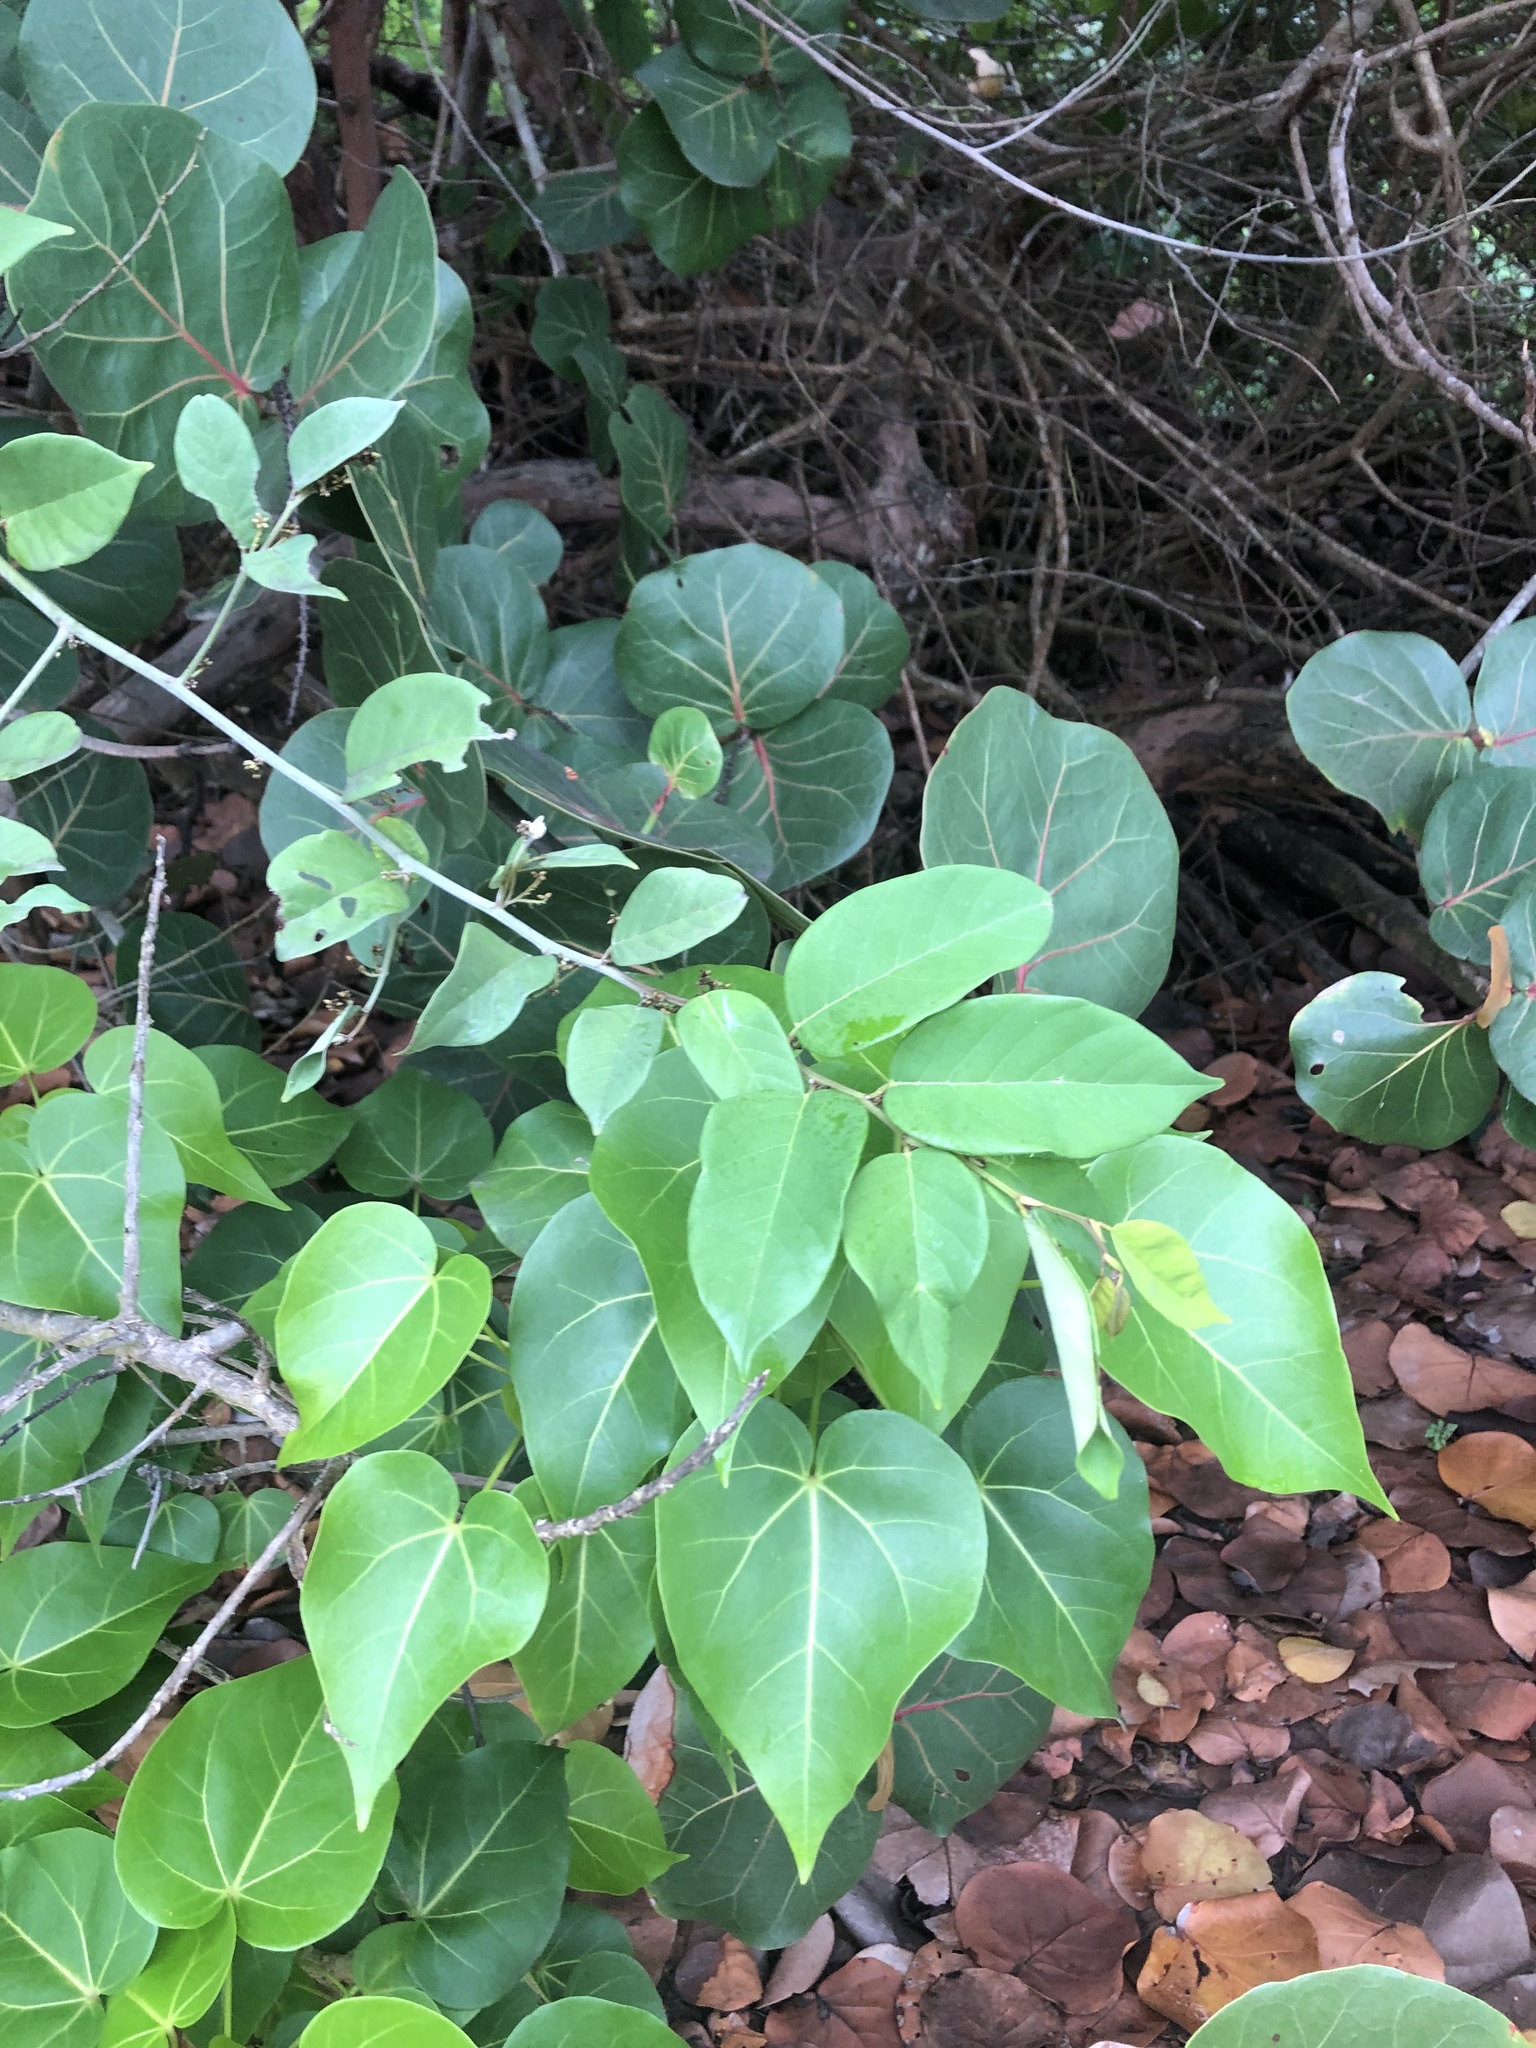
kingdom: Plantae
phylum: Tracheophyta
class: Magnoliopsida
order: Fabales
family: Fabaceae
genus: Dalbergia
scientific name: Dalbergia ecastaphyllum
